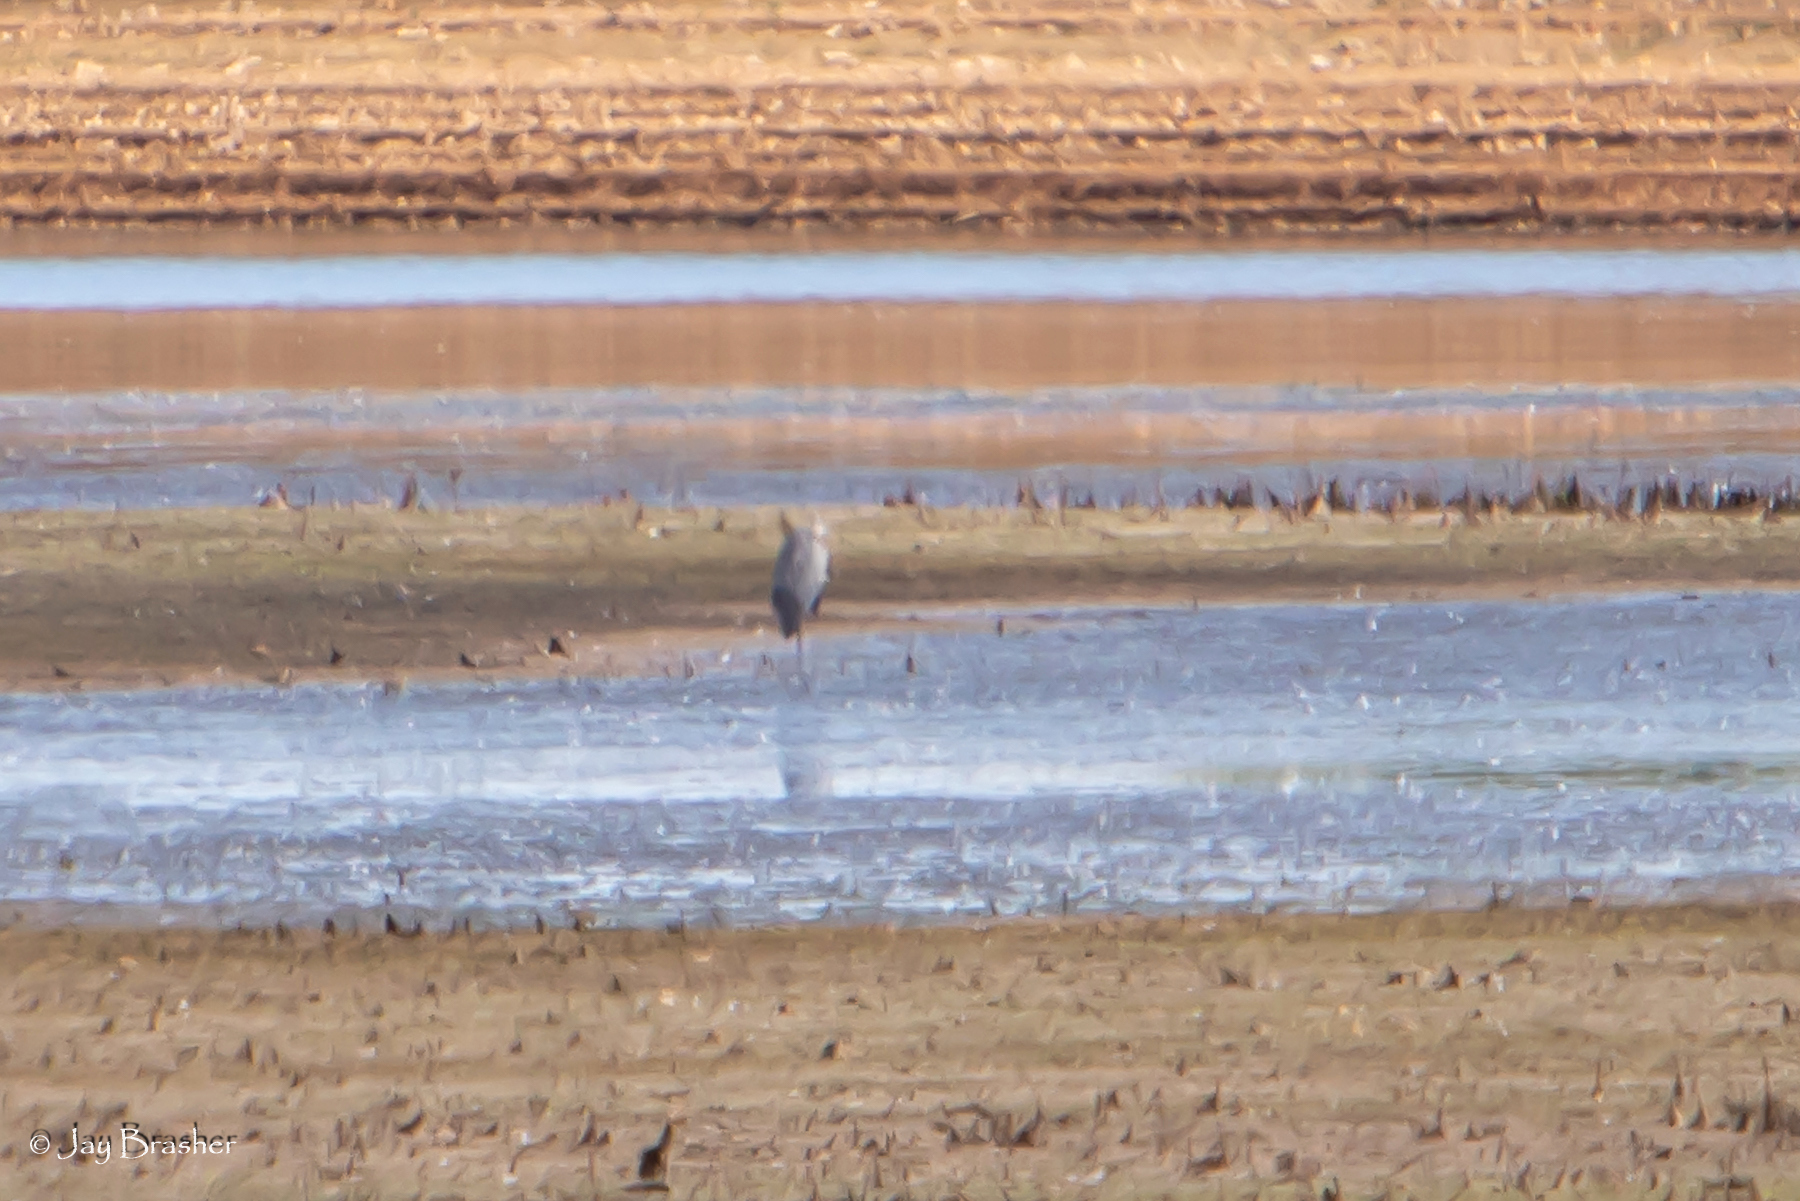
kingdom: Animalia
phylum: Chordata
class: Aves
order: Pelecaniformes
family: Ardeidae
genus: Ardea
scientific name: Ardea herodias
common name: Great blue heron
